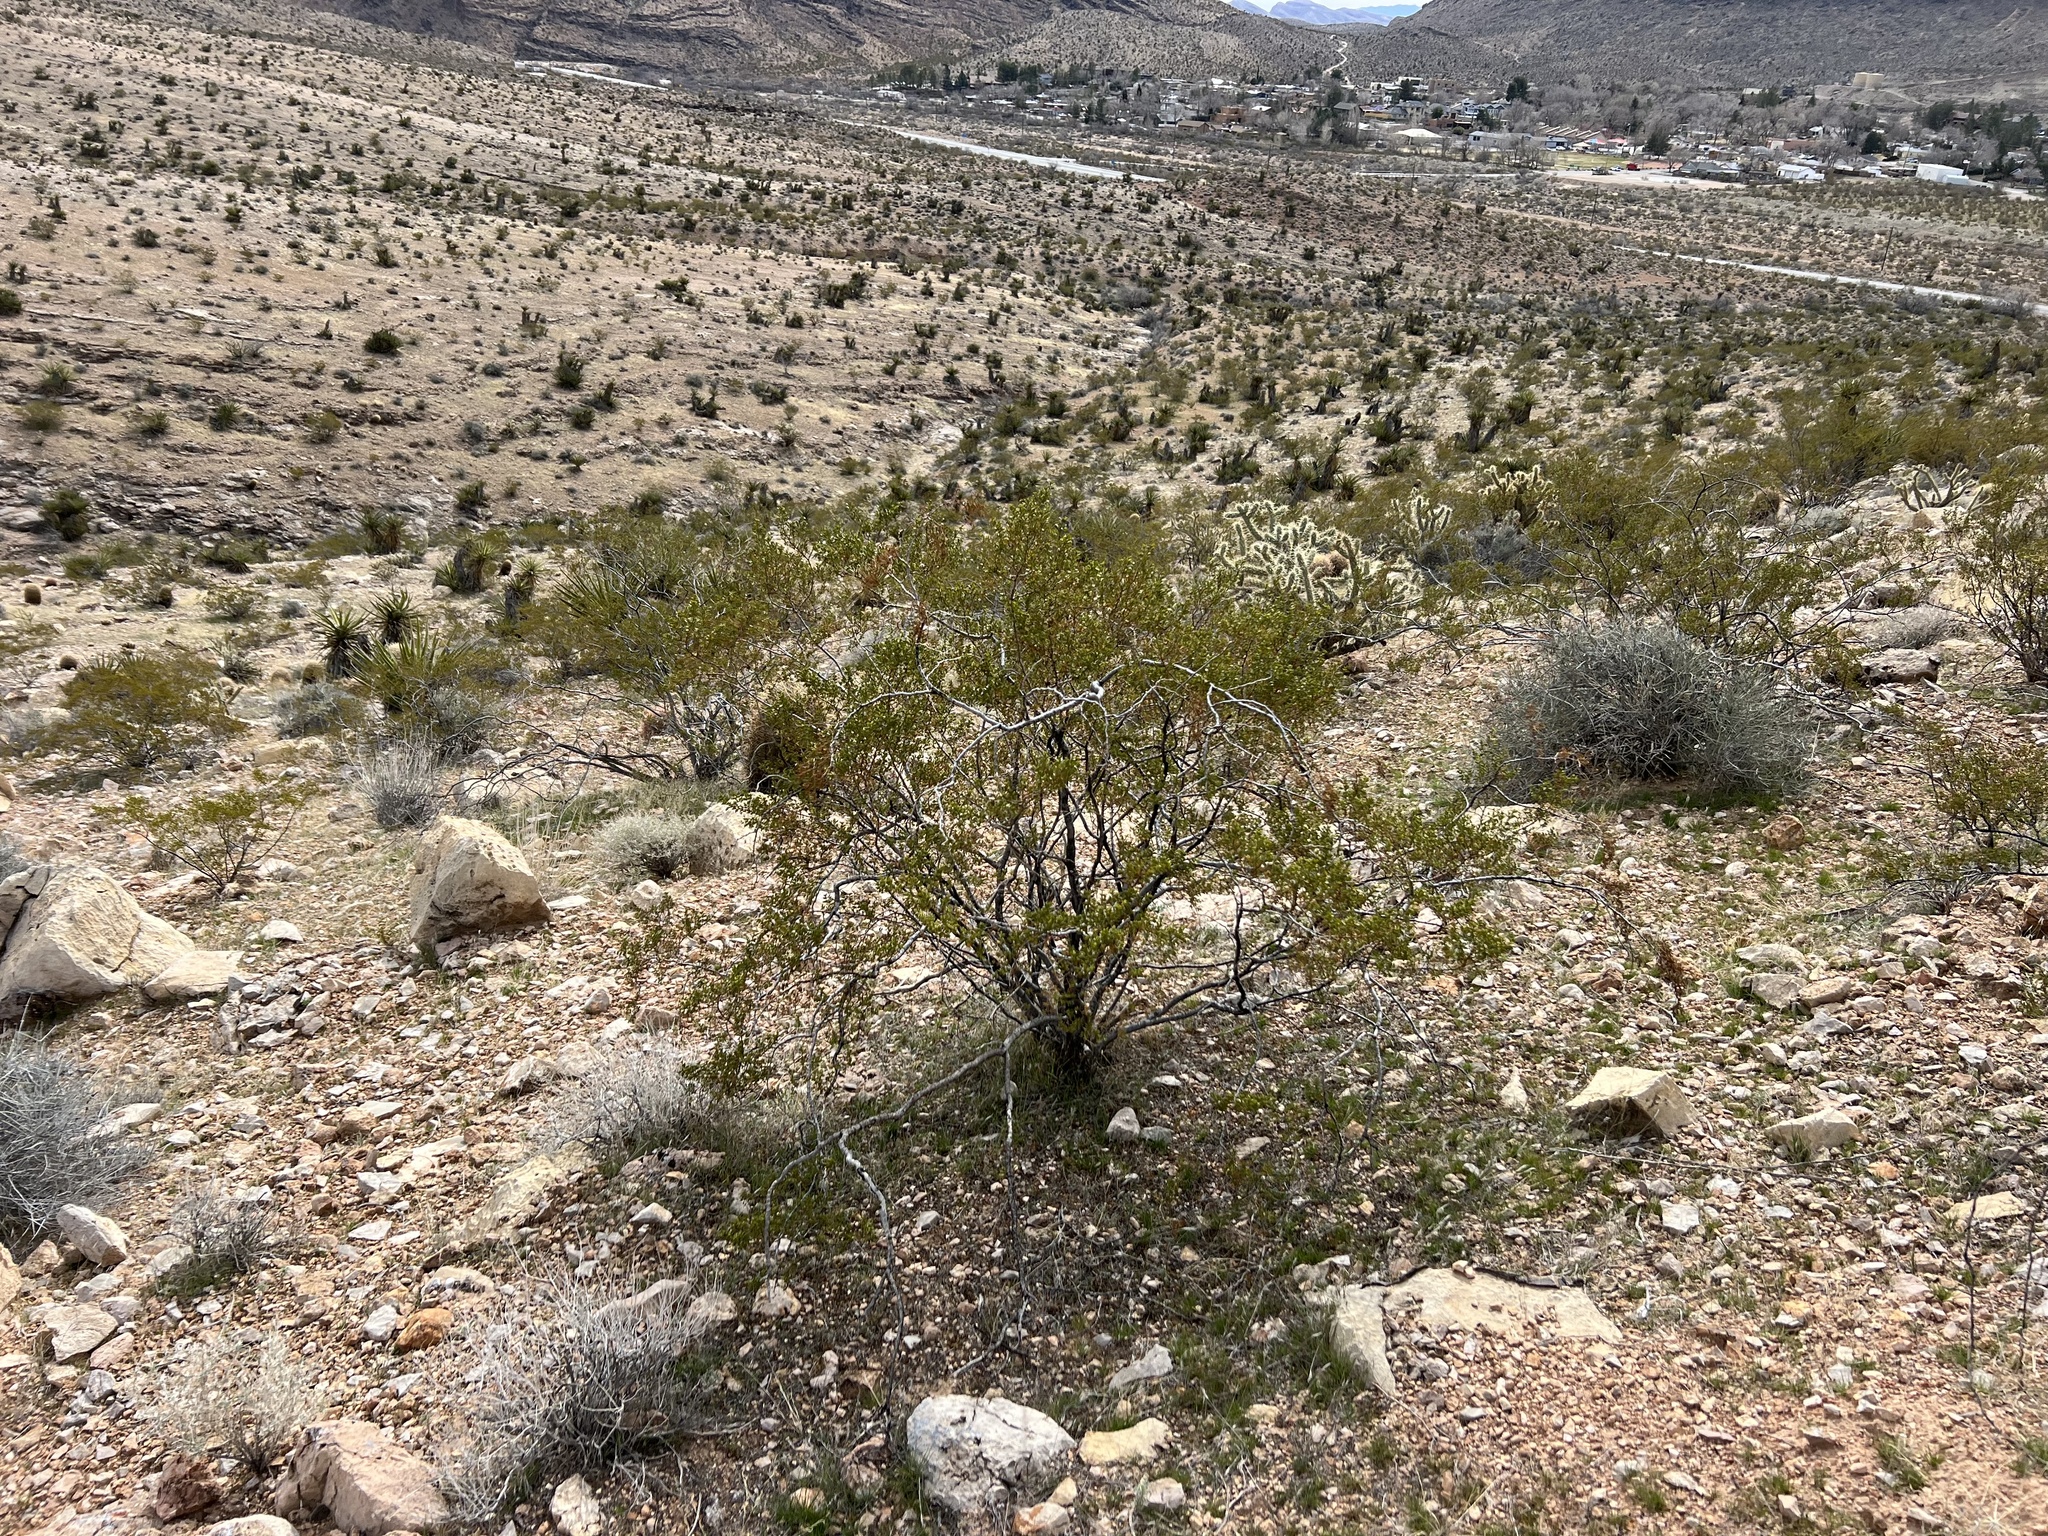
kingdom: Plantae
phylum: Tracheophyta
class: Magnoliopsida
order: Zygophyllales
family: Zygophyllaceae
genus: Larrea
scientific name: Larrea tridentata
